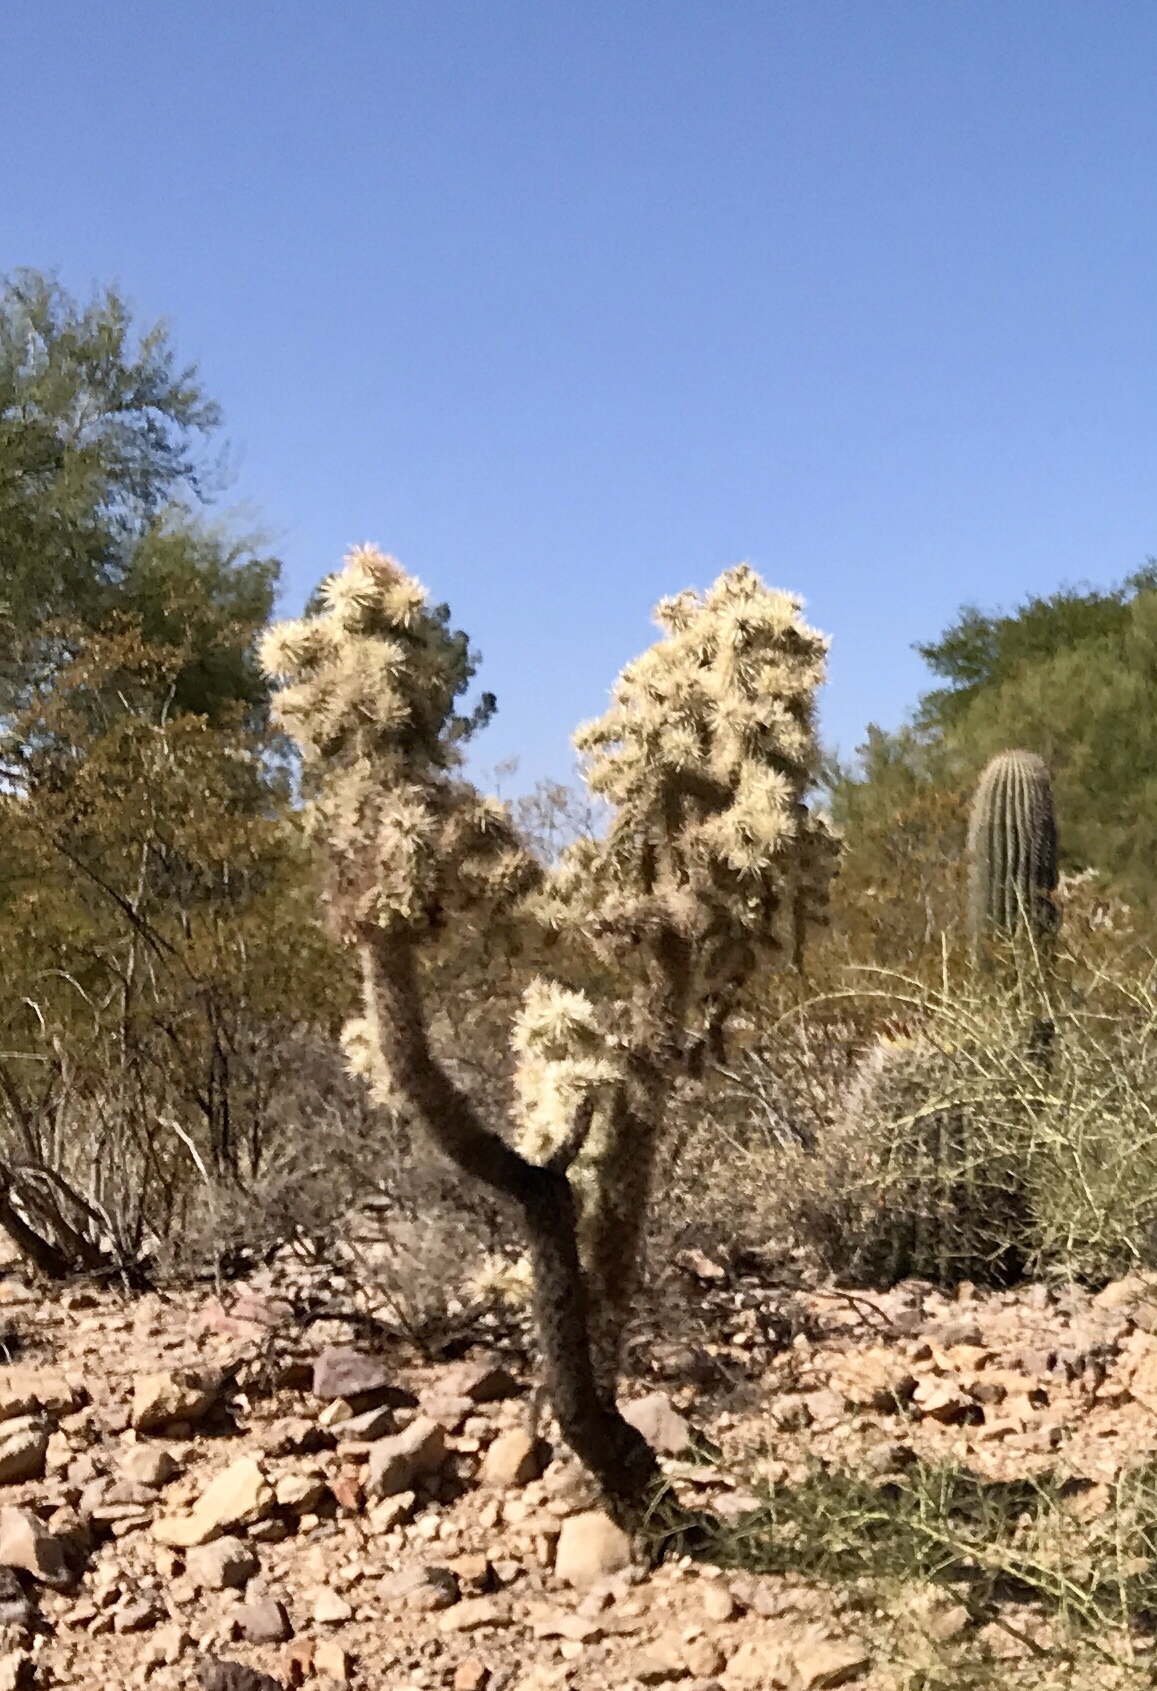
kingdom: Plantae
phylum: Tracheophyta
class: Magnoliopsida
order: Caryophyllales
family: Cactaceae
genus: Cylindropuntia
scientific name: Cylindropuntia fulgida
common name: Jumping cholla
